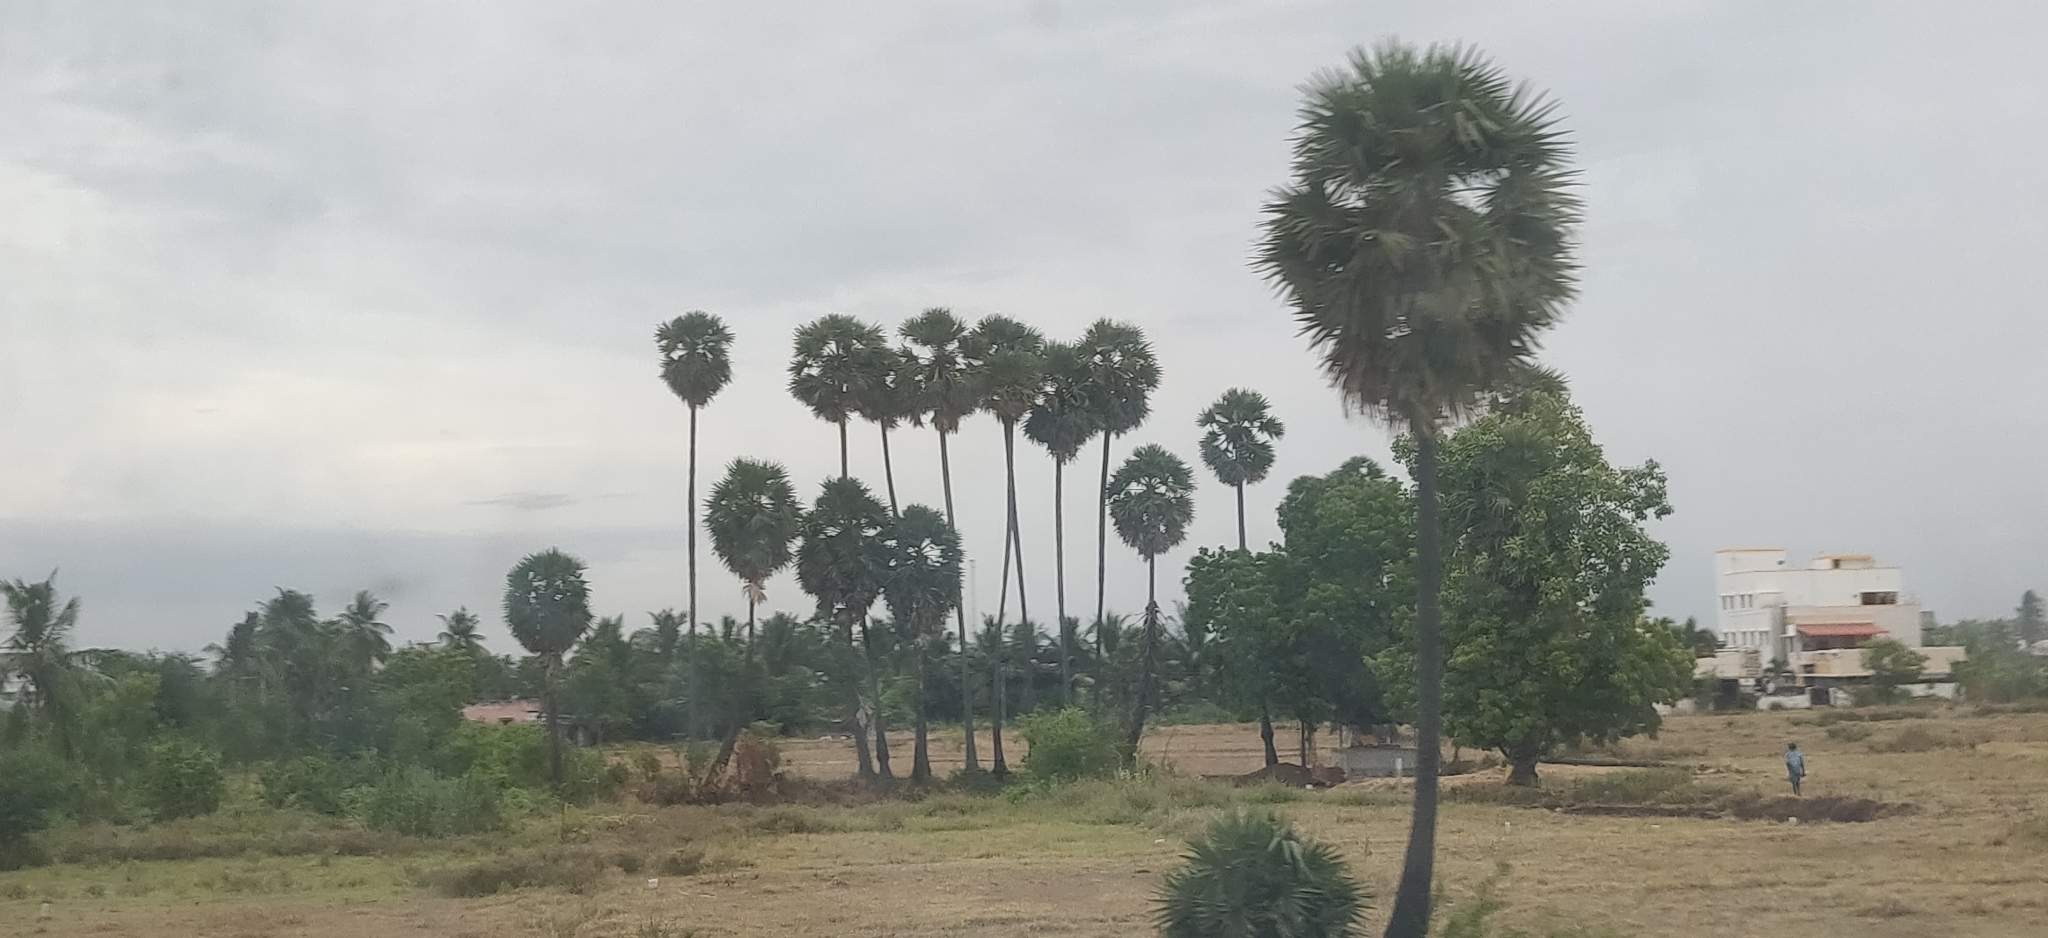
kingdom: Plantae
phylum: Tracheophyta
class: Liliopsida
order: Arecales
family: Arecaceae
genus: Borassus
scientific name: Borassus flabellifer
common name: Palmyra palm
